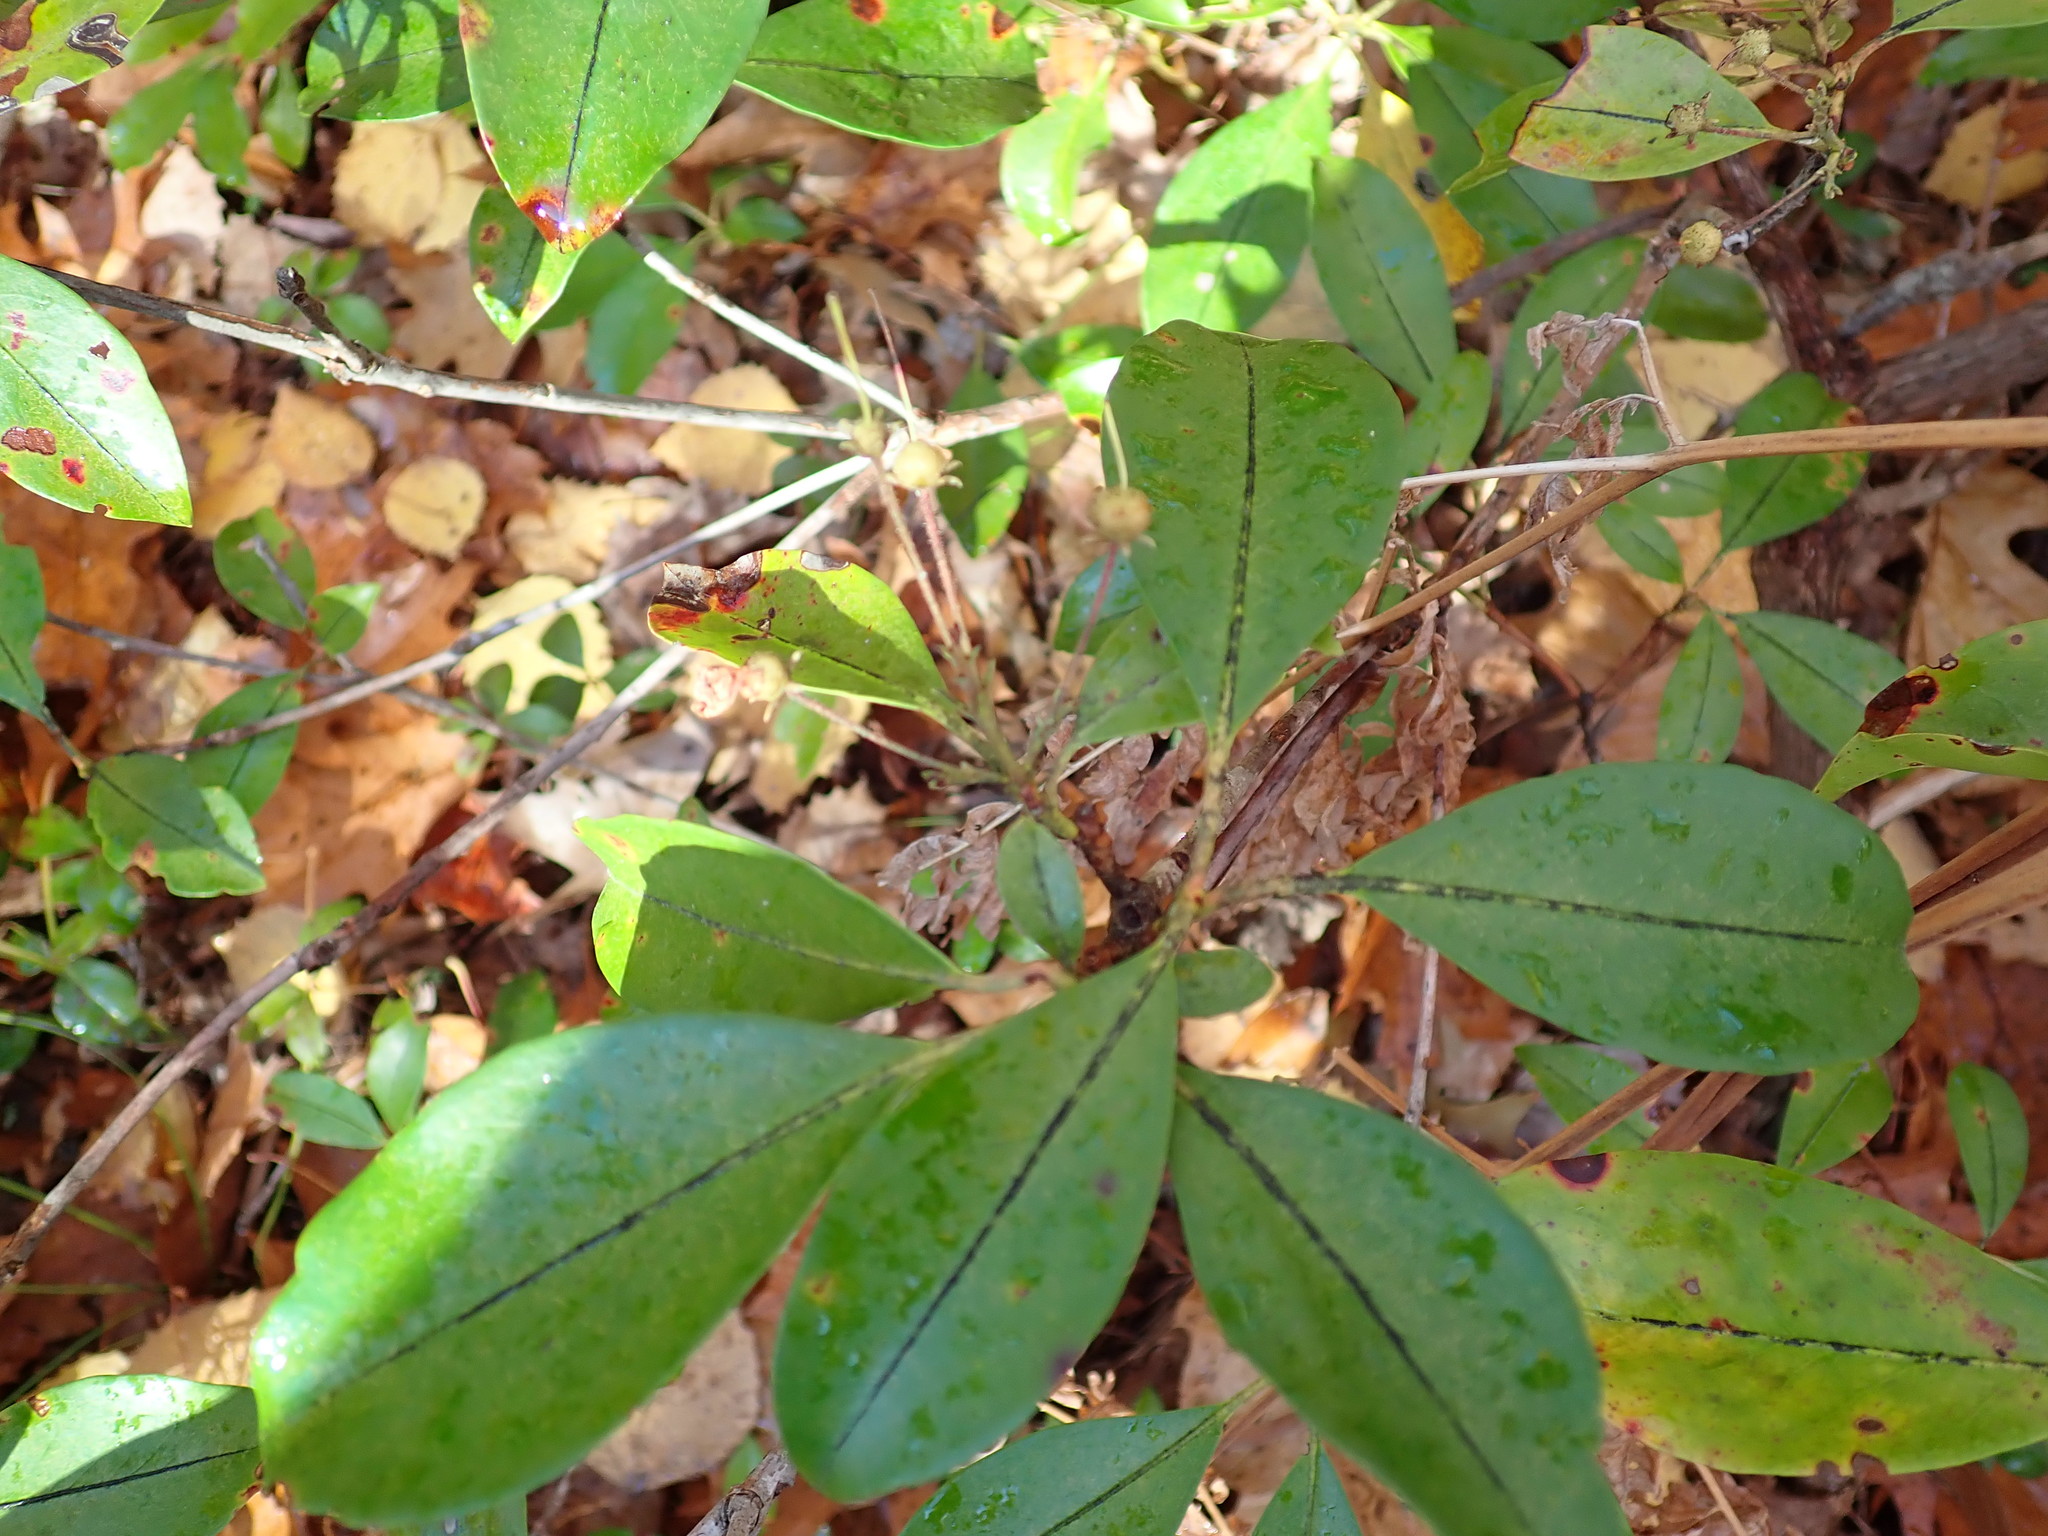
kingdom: Plantae
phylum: Tracheophyta
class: Magnoliopsida
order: Ericales
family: Ericaceae
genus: Kalmia
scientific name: Kalmia latifolia
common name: Mountain-laurel
